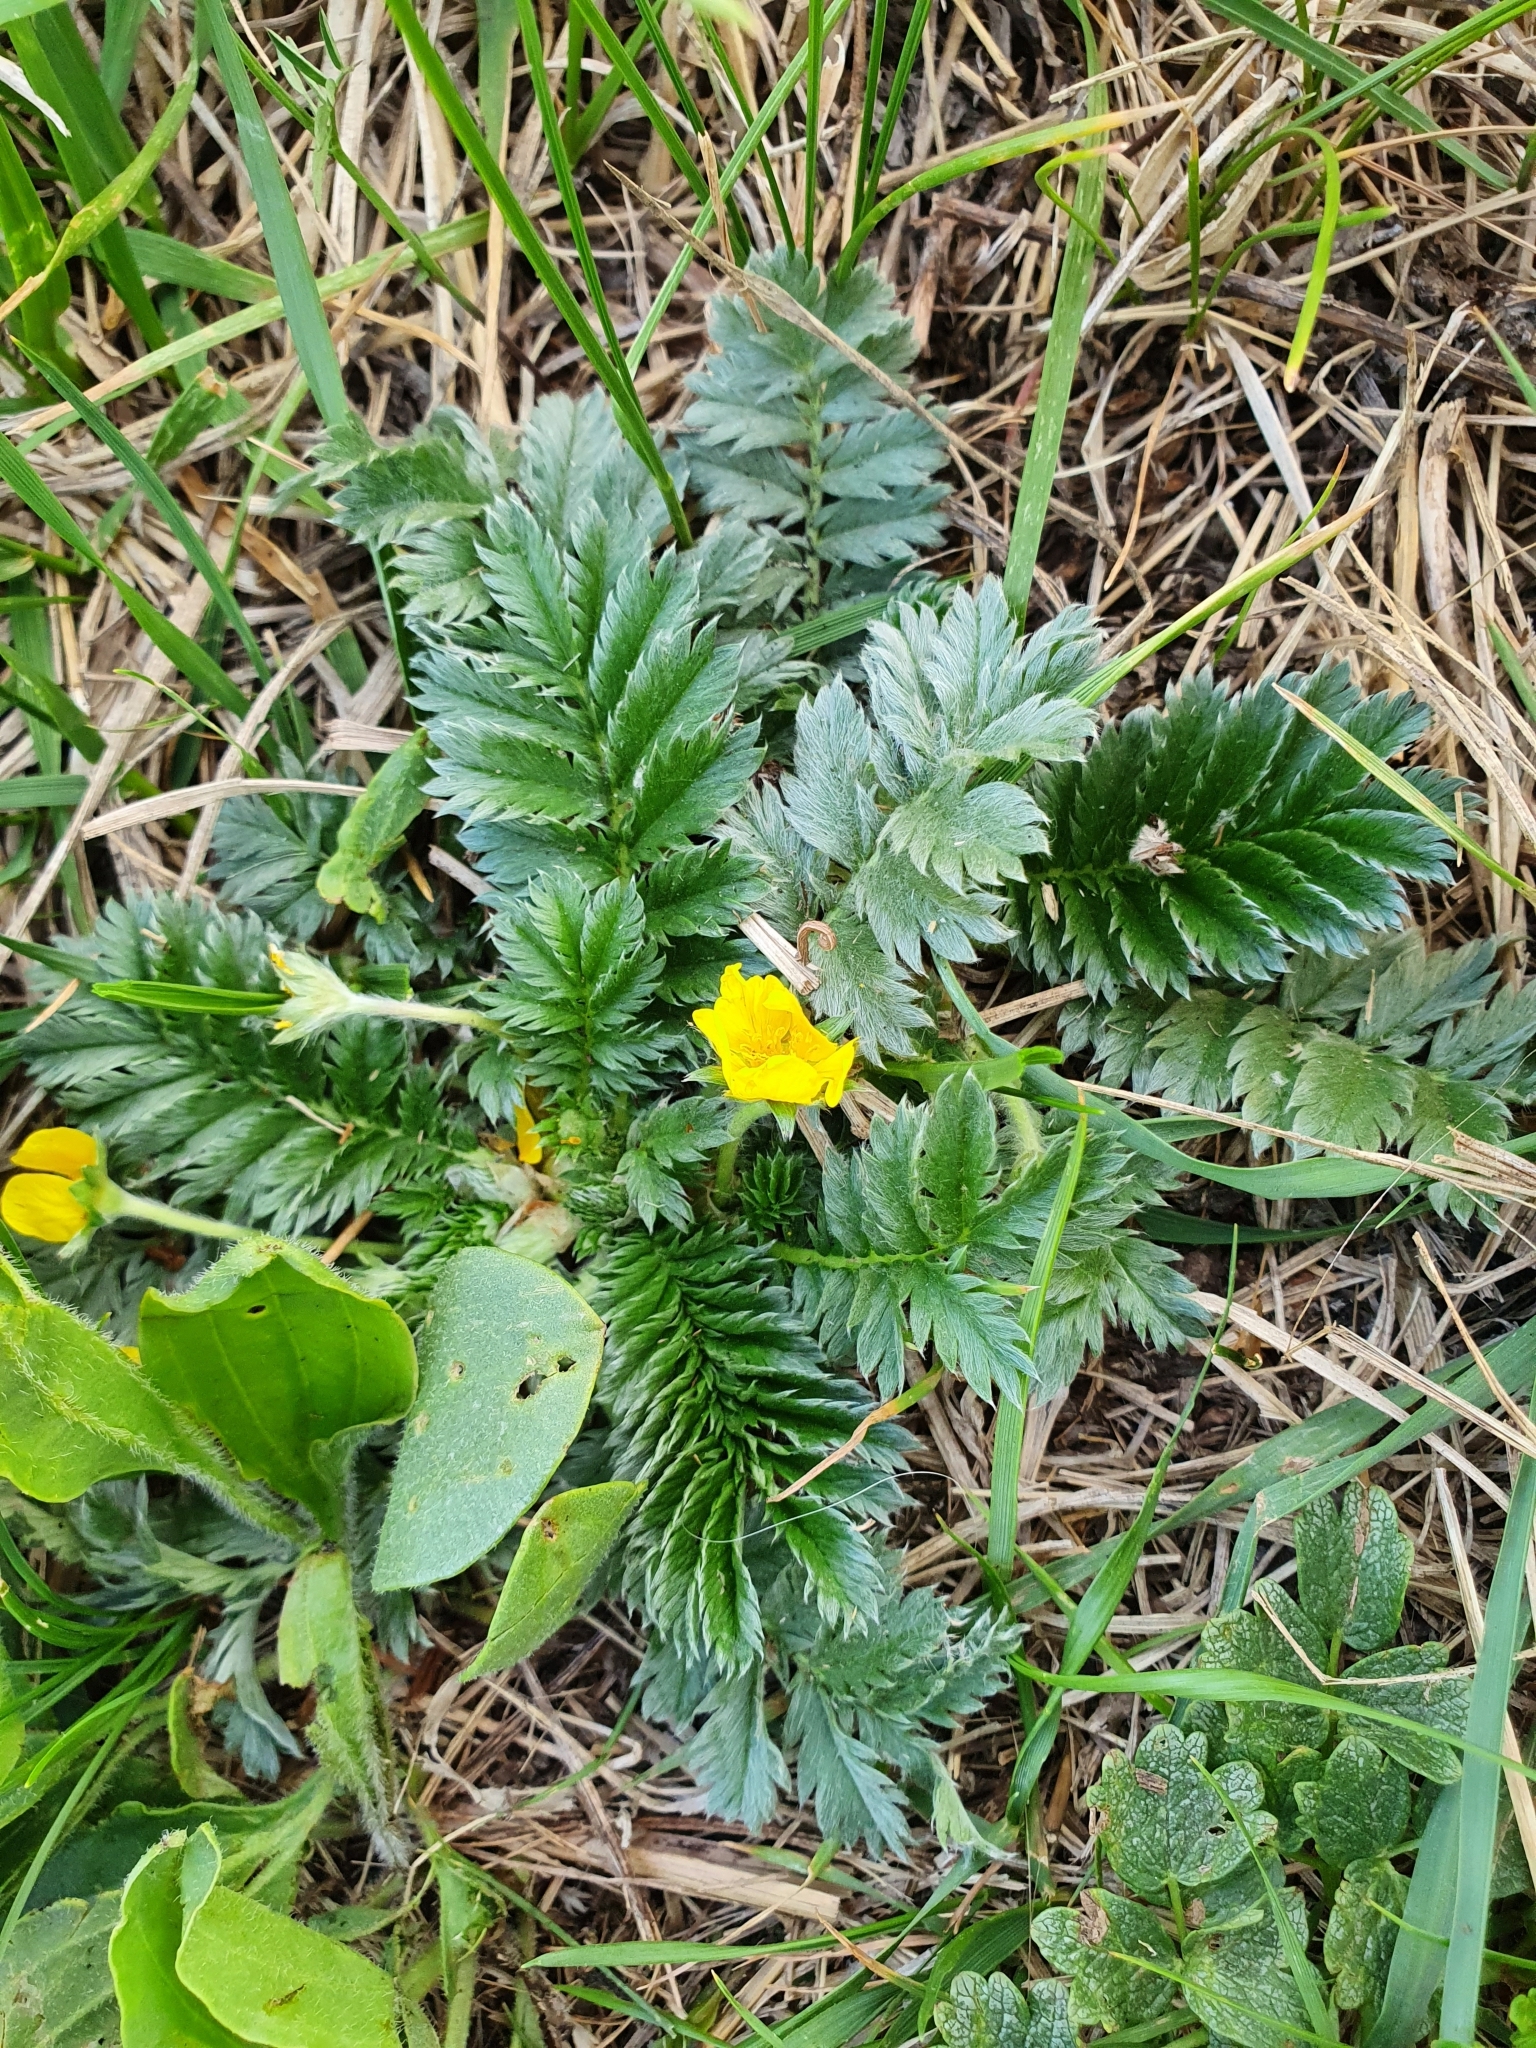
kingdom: Plantae
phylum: Tracheophyta
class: Magnoliopsida
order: Rosales
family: Rosaceae
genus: Argentina
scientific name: Argentina anserina
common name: Common silverweed
